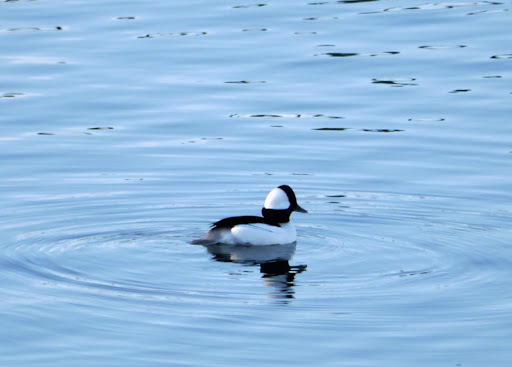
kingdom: Animalia
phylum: Chordata
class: Aves
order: Anseriformes
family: Anatidae
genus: Bucephala
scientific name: Bucephala albeola
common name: Bufflehead
